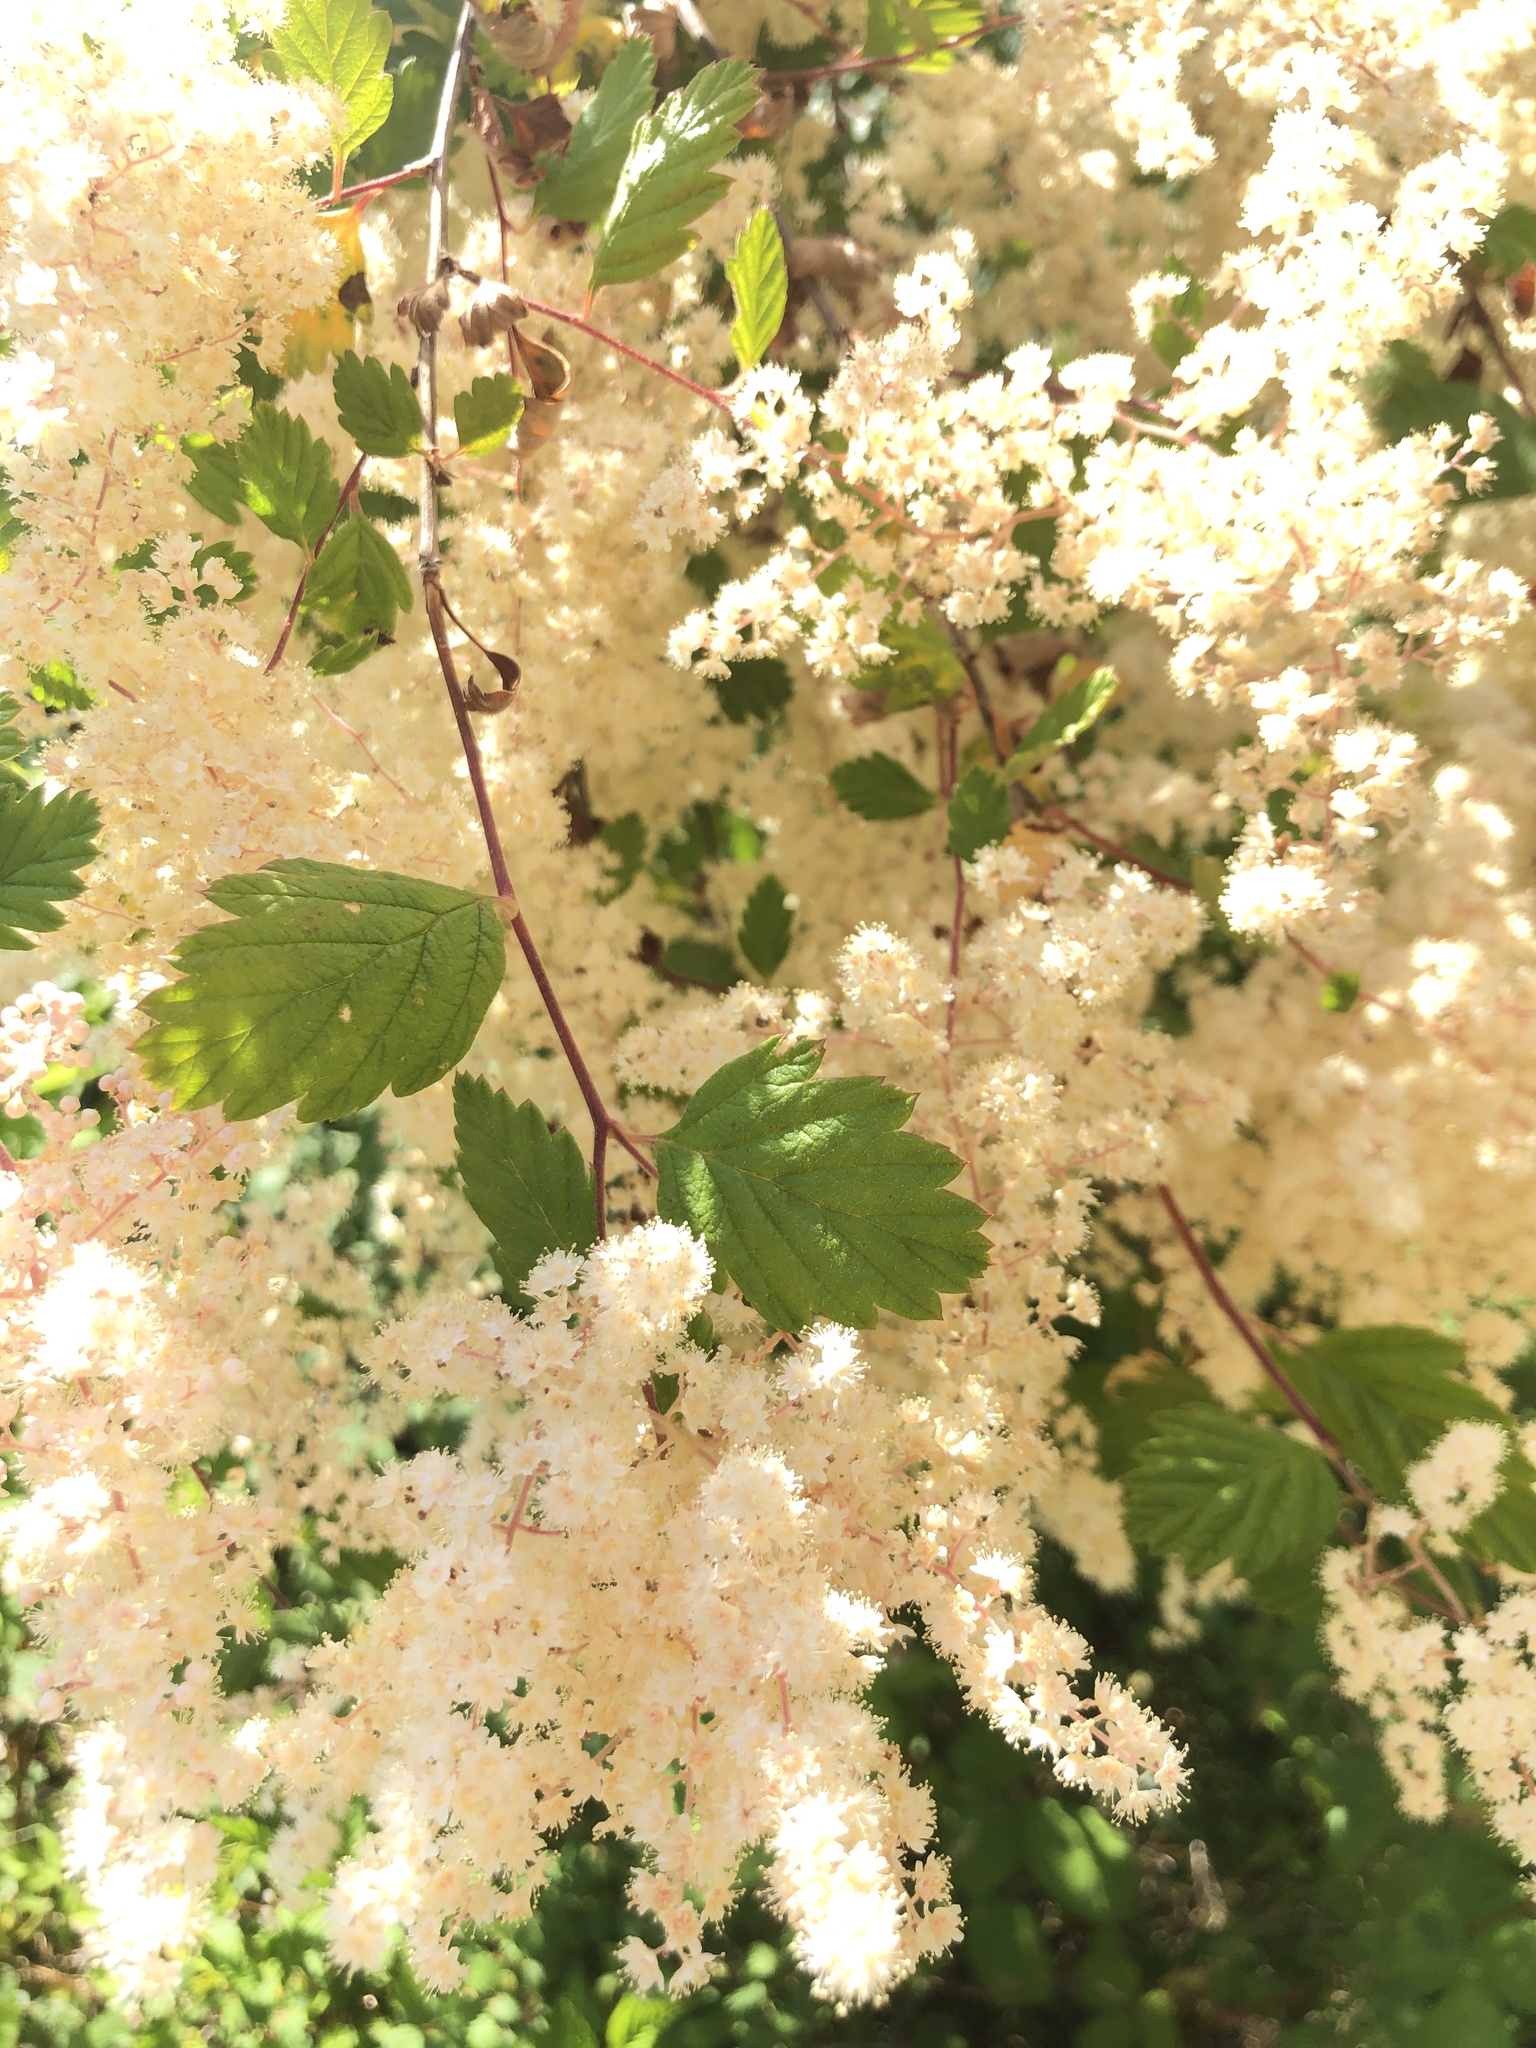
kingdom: Plantae
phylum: Tracheophyta
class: Magnoliopsida
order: Rosales
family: Rosaceae
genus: Holodiscus
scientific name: Holodiscus discolor
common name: Oceanspray
